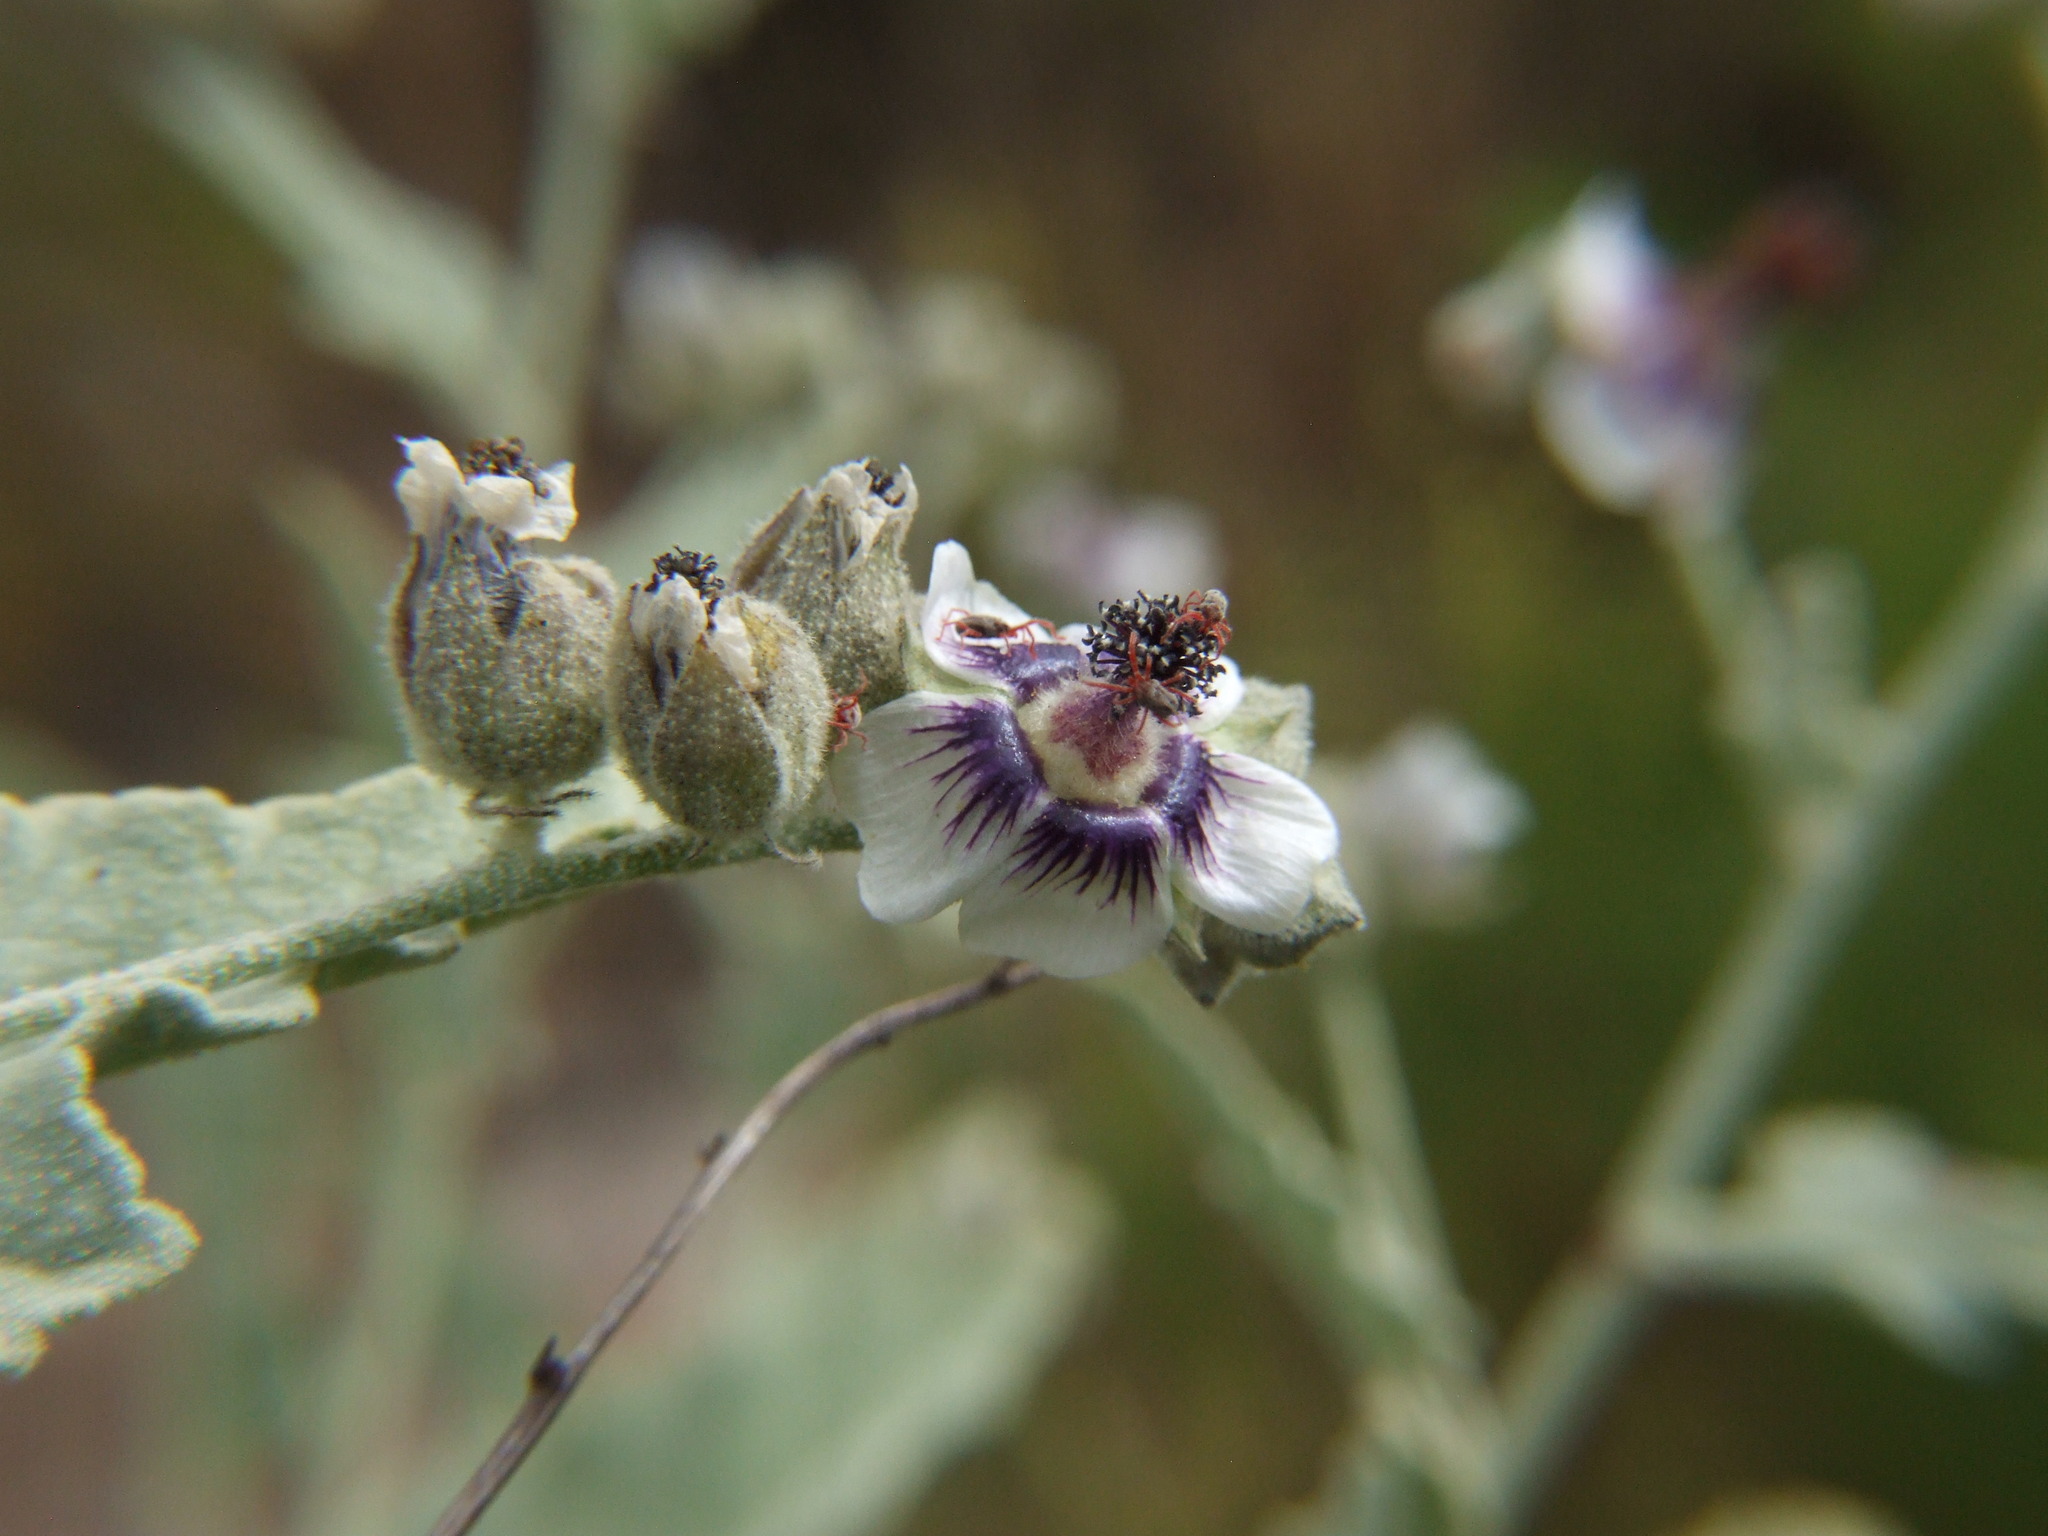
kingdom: Plantae
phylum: Tracheophyta
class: Magnoliopsida
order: Malvales
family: Malvaceae
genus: Tarasa
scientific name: Tarasa operculata
